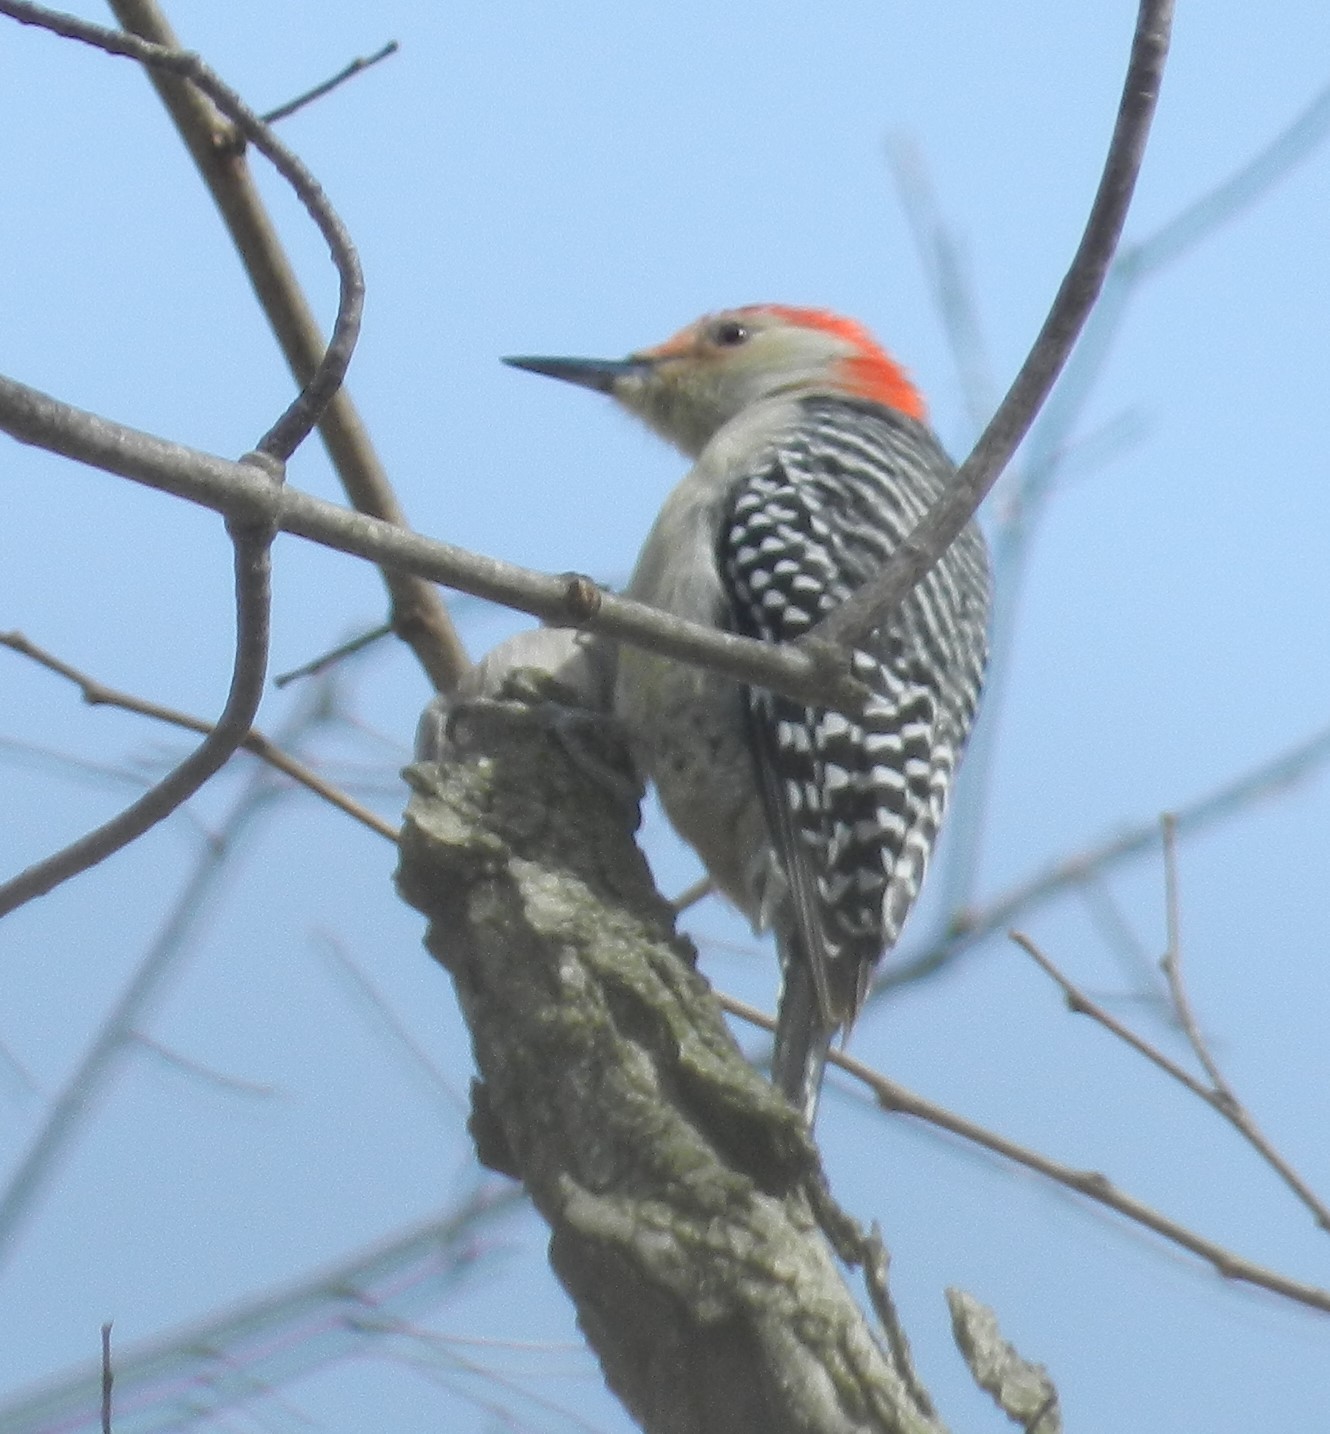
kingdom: Animalia
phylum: Chordata
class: Aves
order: Piciformes
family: Picidae
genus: Melanerpes
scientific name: Melanerpes carolinus
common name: Red-bellied woodpecker
